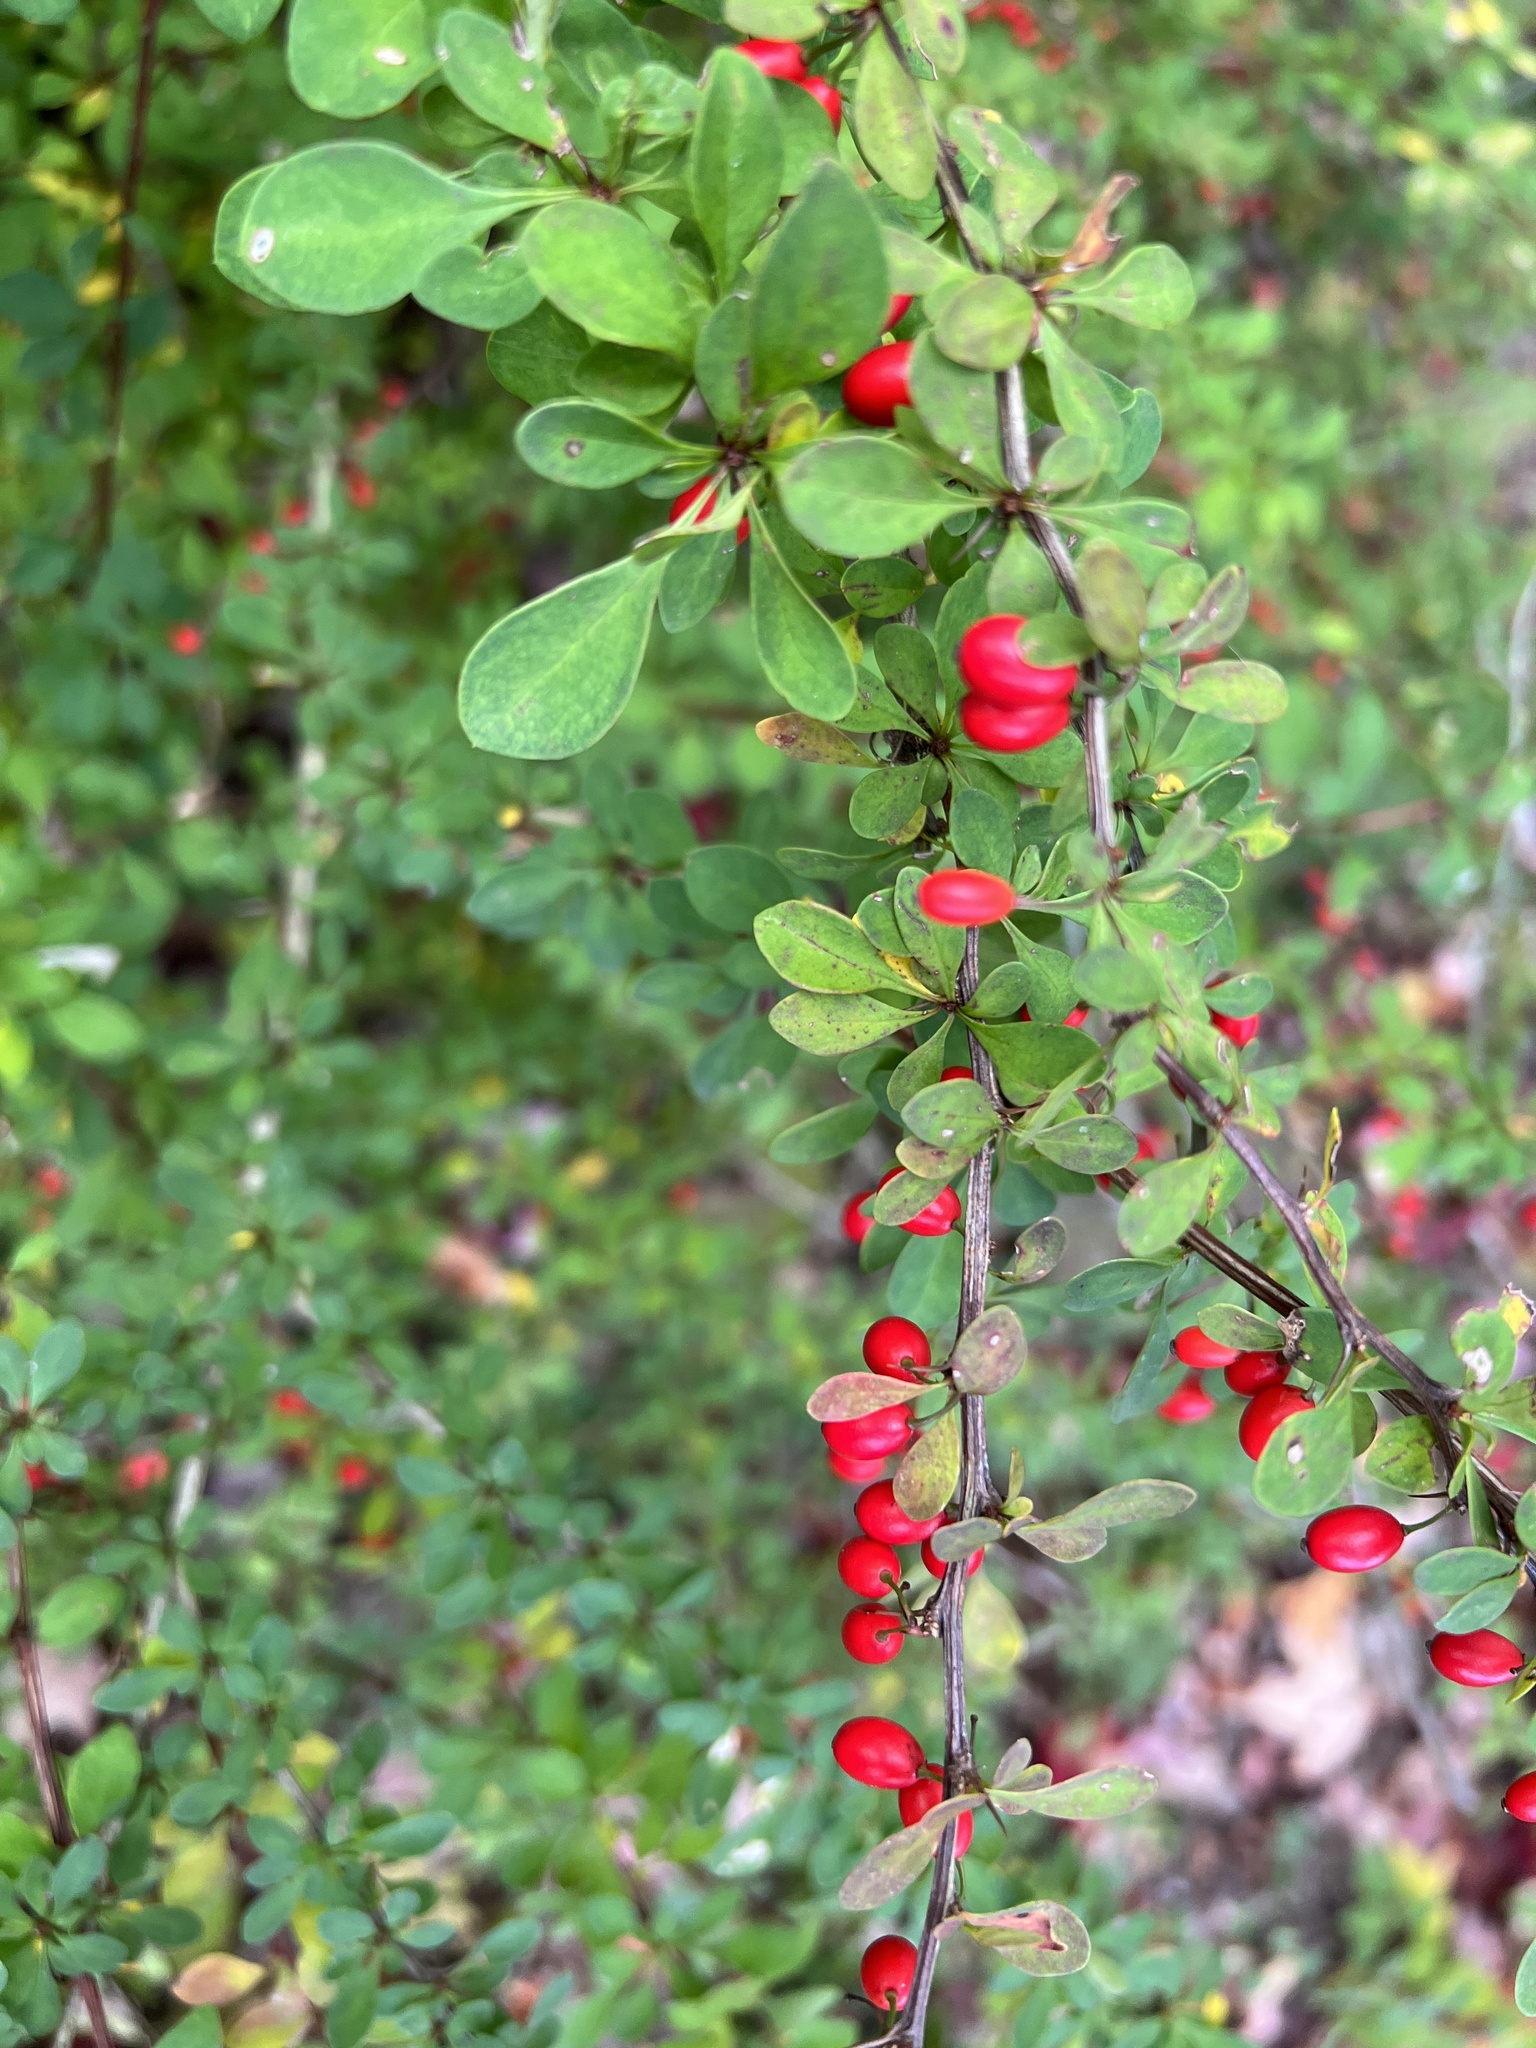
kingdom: Plantae
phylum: Tracheophyta
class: Magnoliopsida
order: Ranunculales
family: Berberidaceae
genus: Berberis
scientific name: Berberis thunbergii
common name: Japanese barberry
